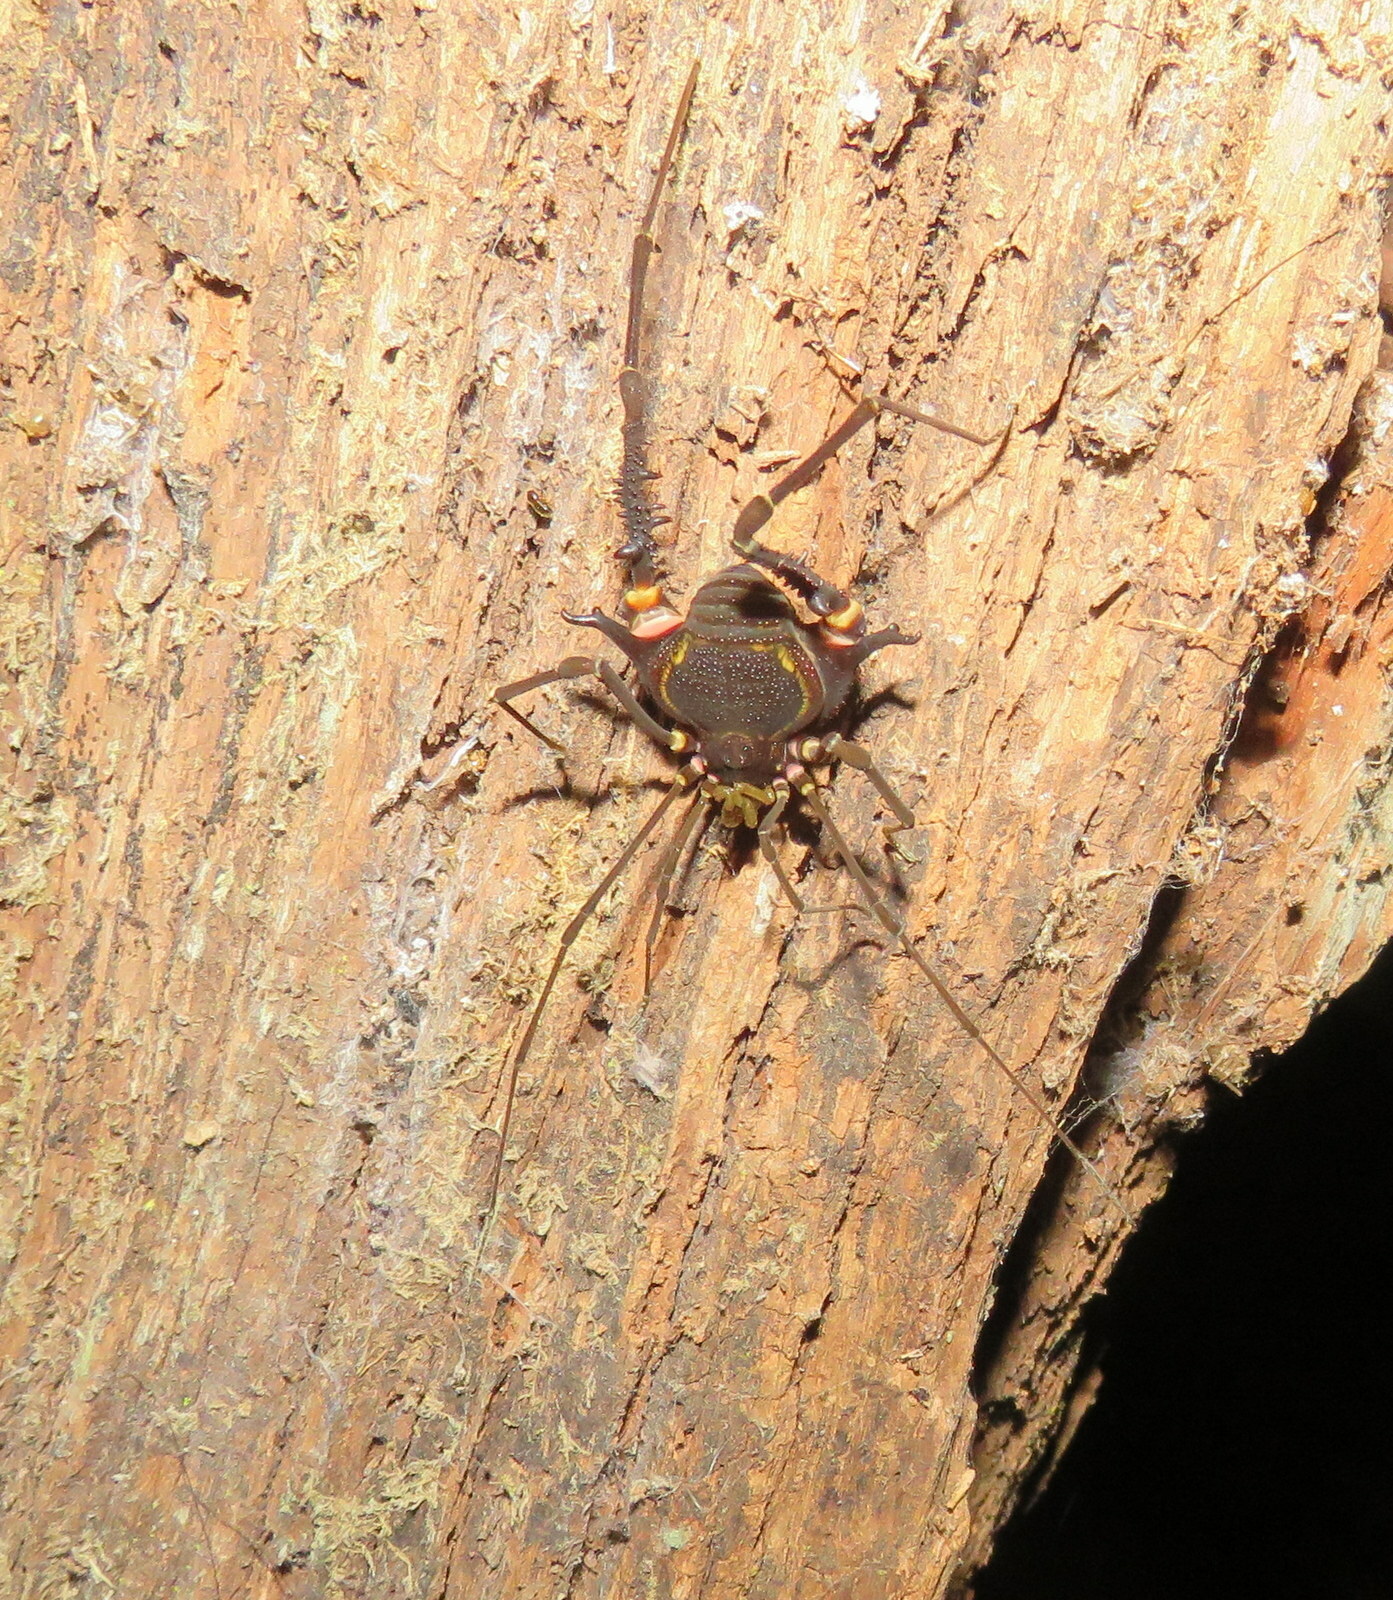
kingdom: Animalia
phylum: Arthropoda
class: Arachnida
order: Opiliones
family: Gonyleptidae
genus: Geraeocormobius
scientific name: Geraeocormobius sylvarum
